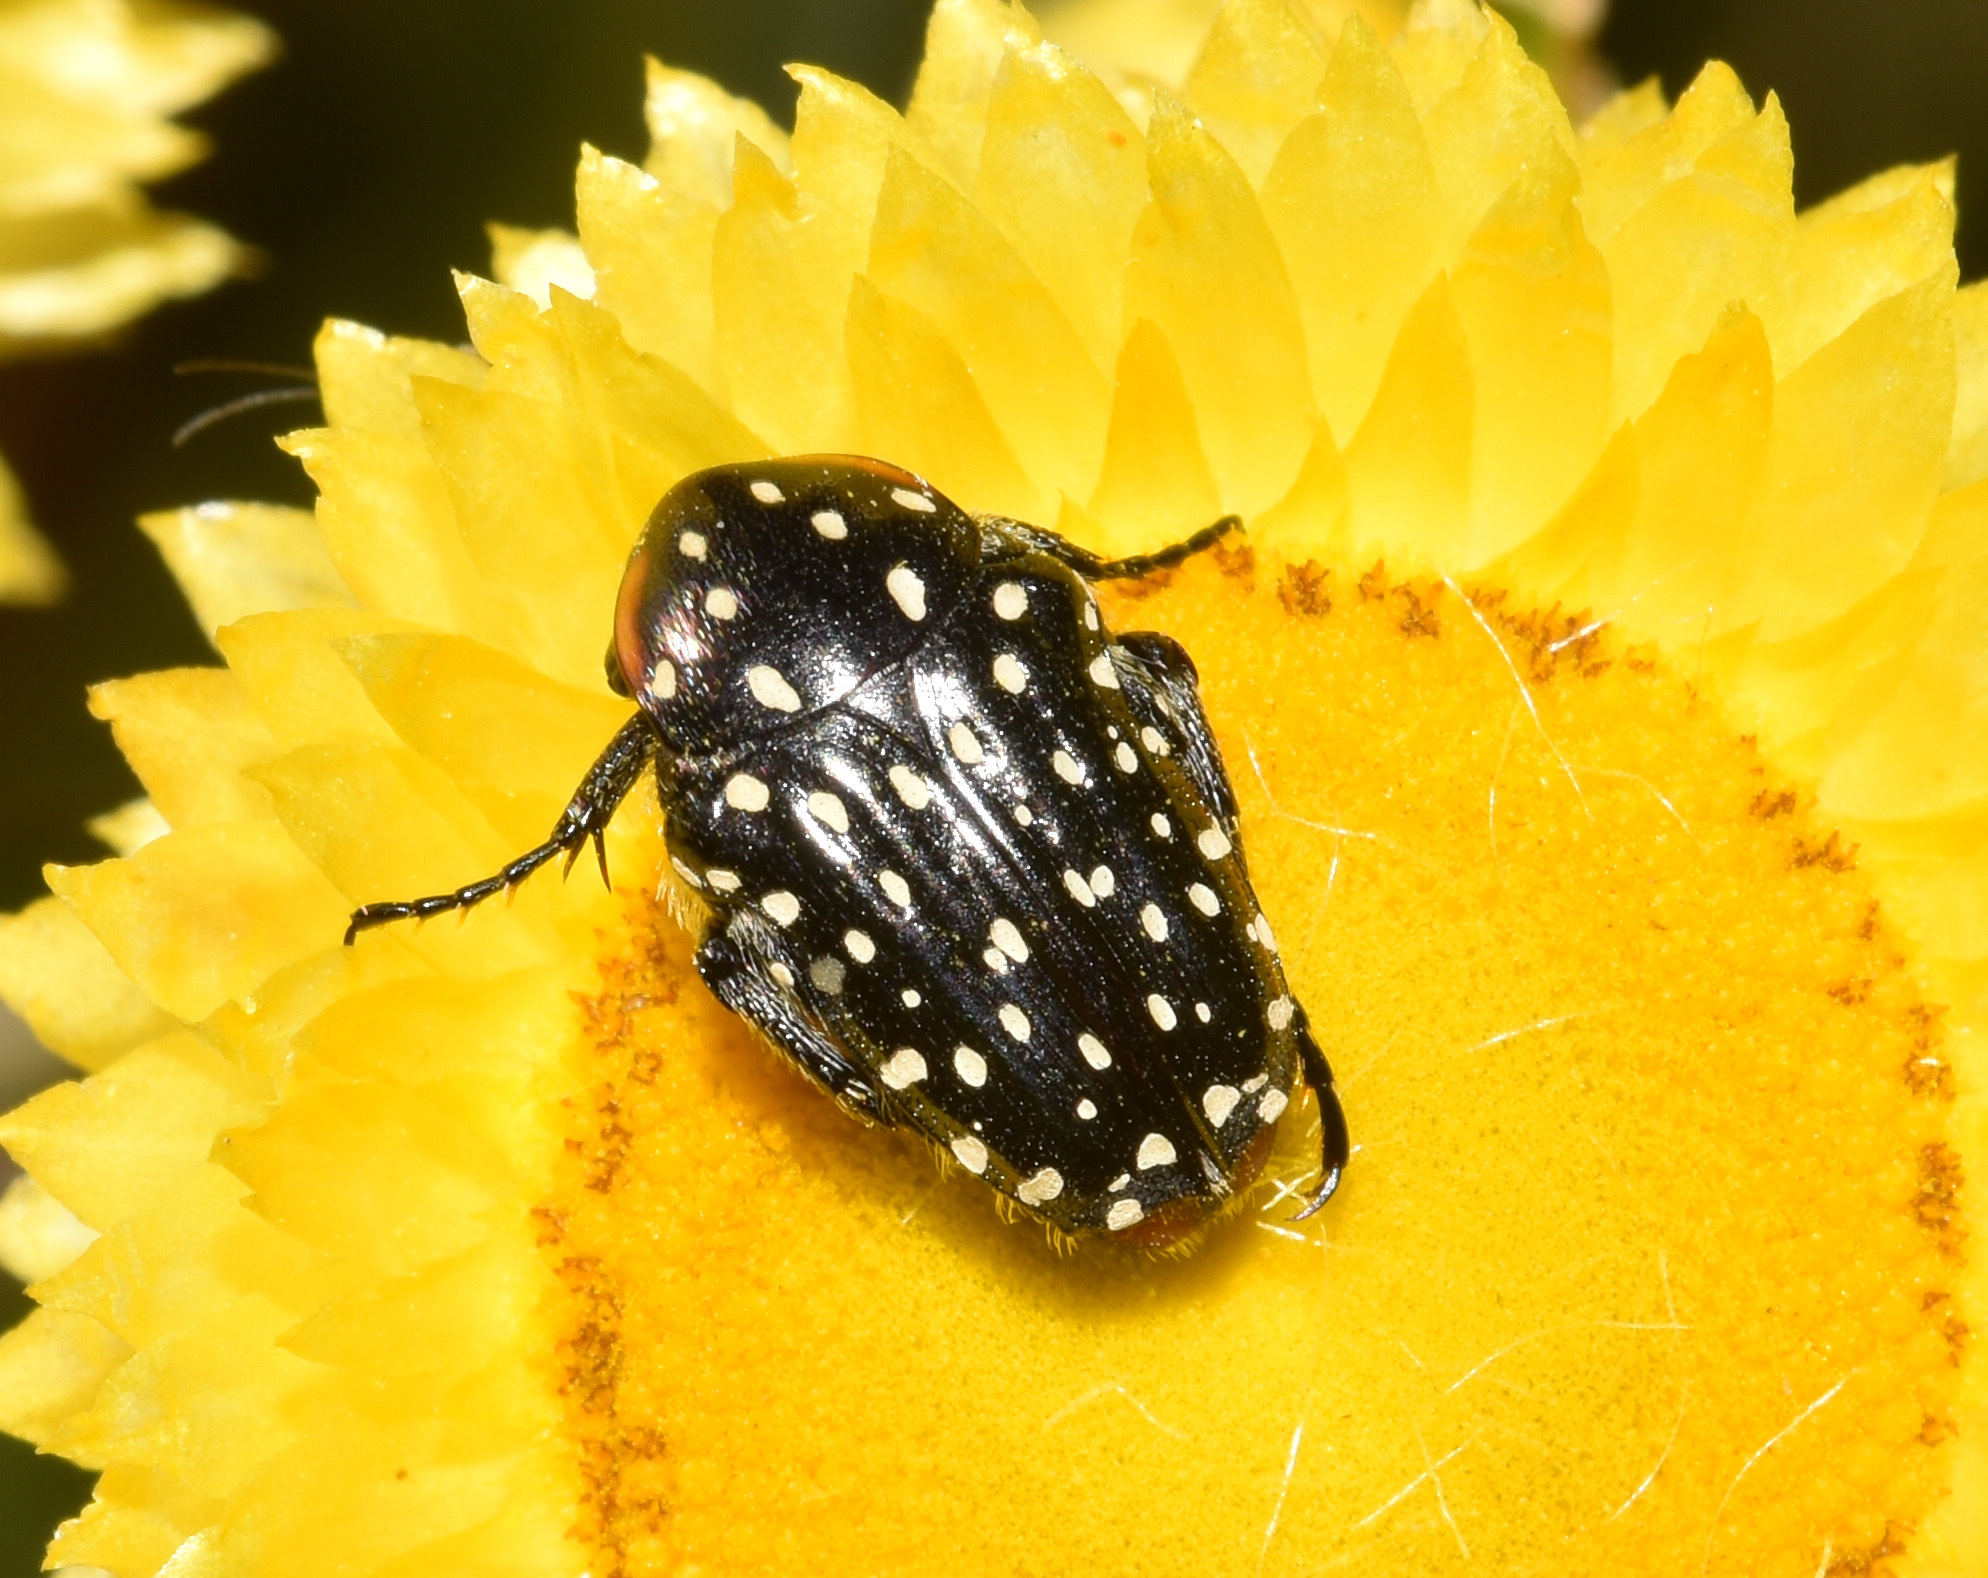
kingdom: Animalia
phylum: Arthropoda
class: Insecta
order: Coleoptera
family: Scarabaeidae
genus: Oxythyrea
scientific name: Oxythyrea
